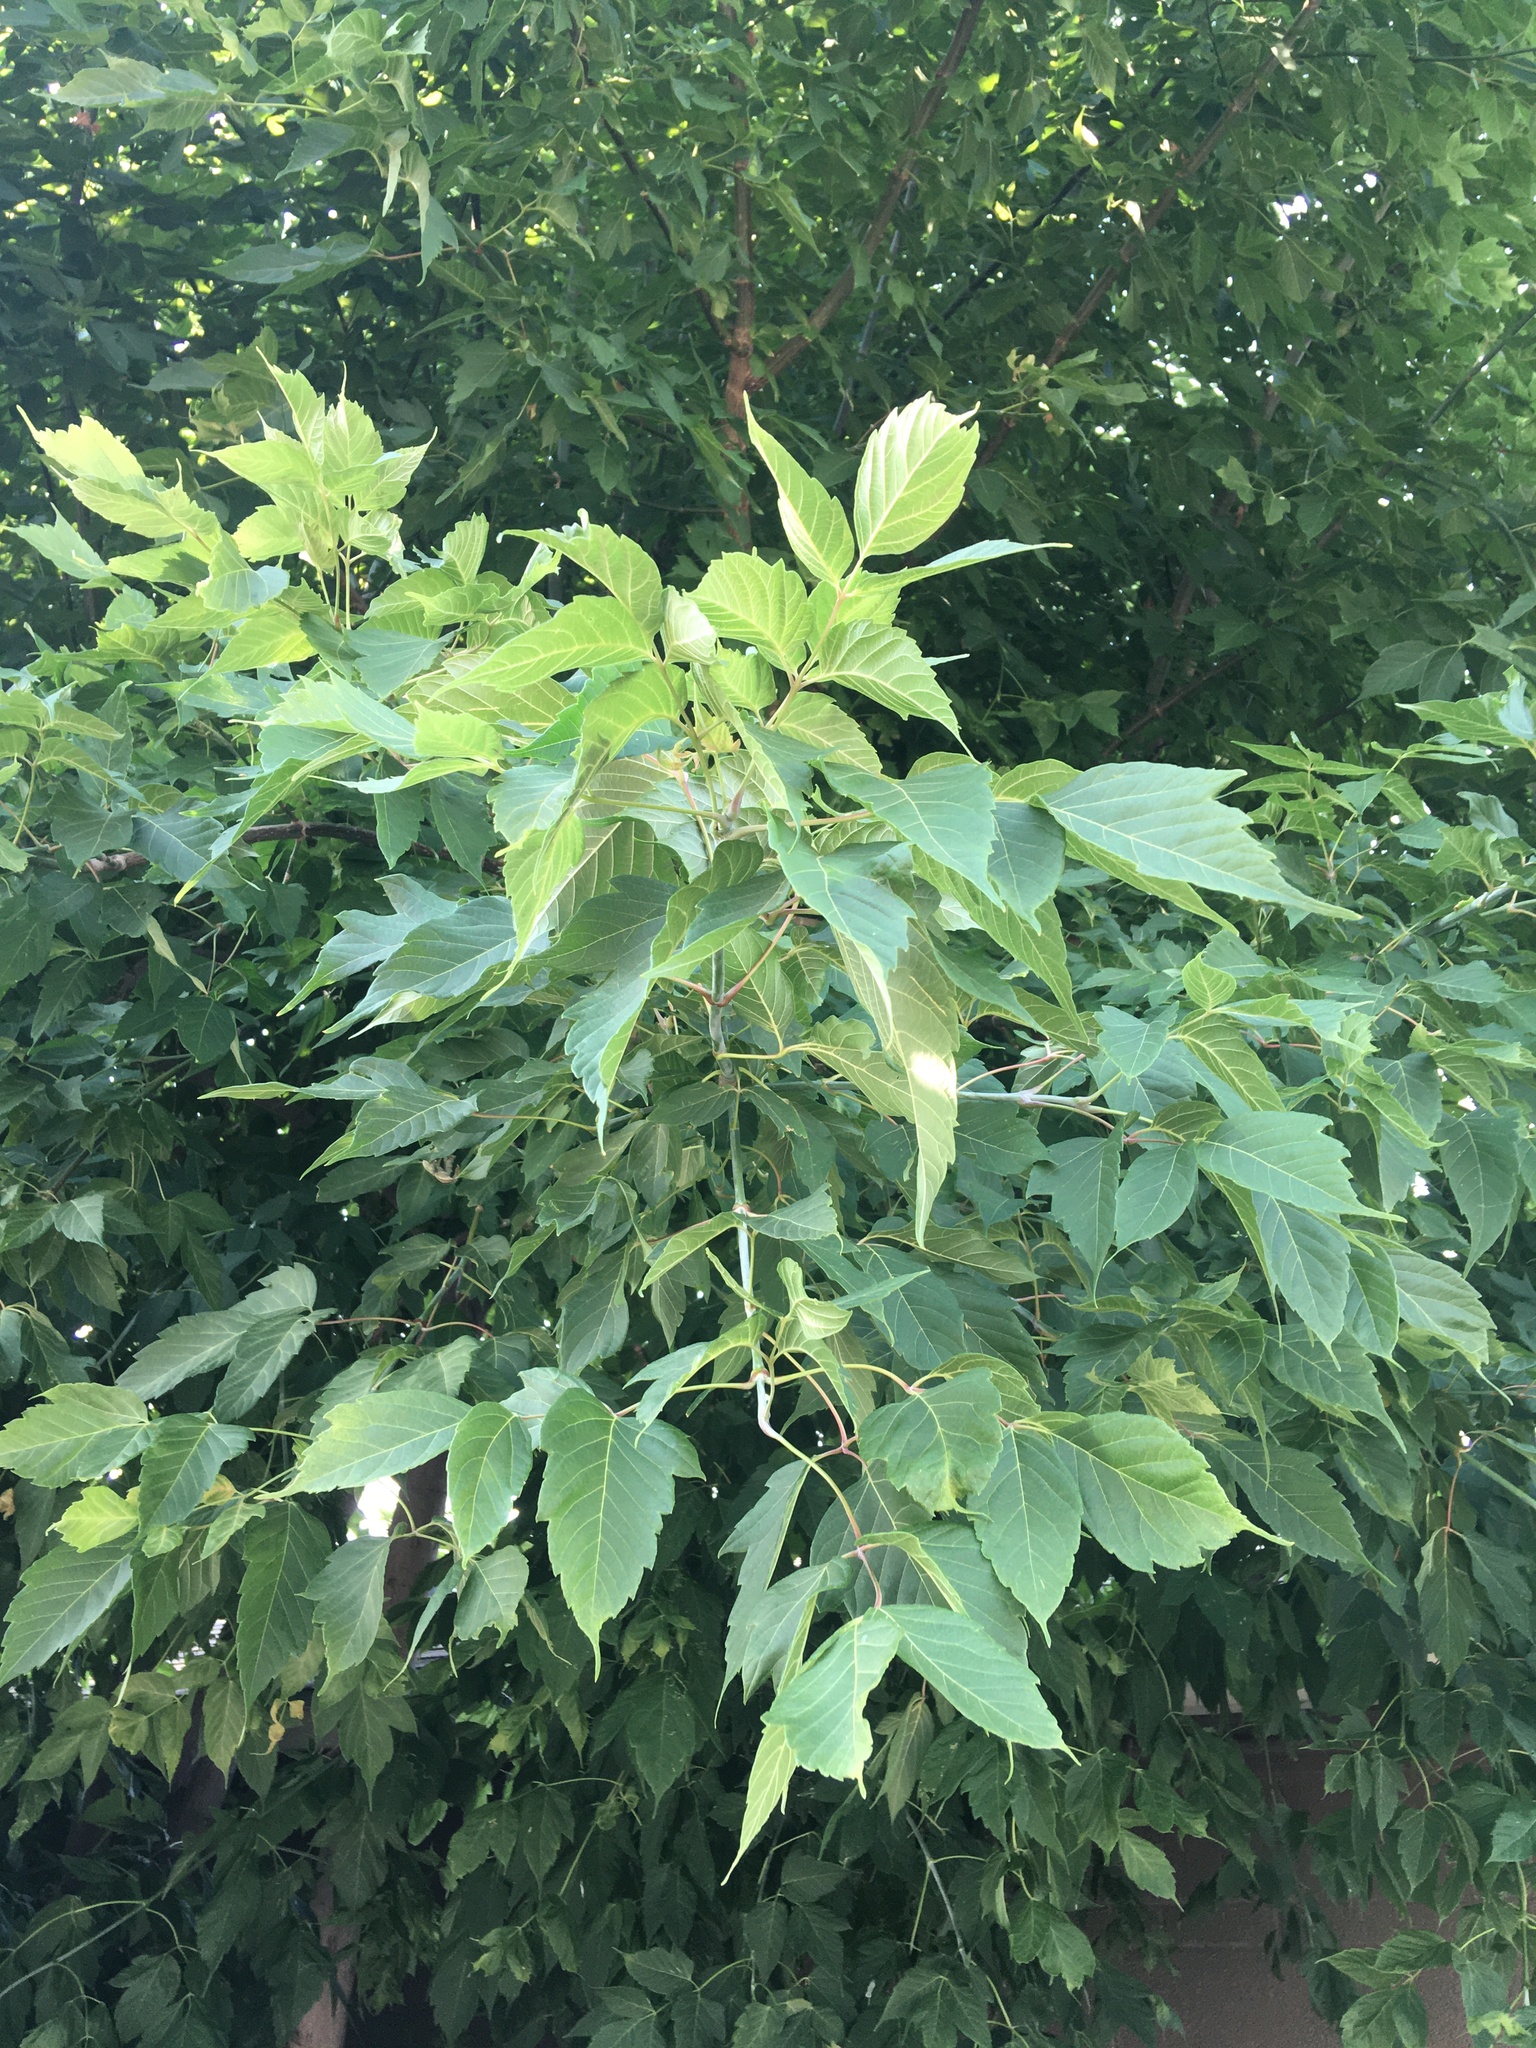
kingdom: Plantae
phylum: Tracheophyta
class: Magnoliopsida
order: Sapindales
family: Sapindaceae
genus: Acer
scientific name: Acer negundo
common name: Ashleaf maple
